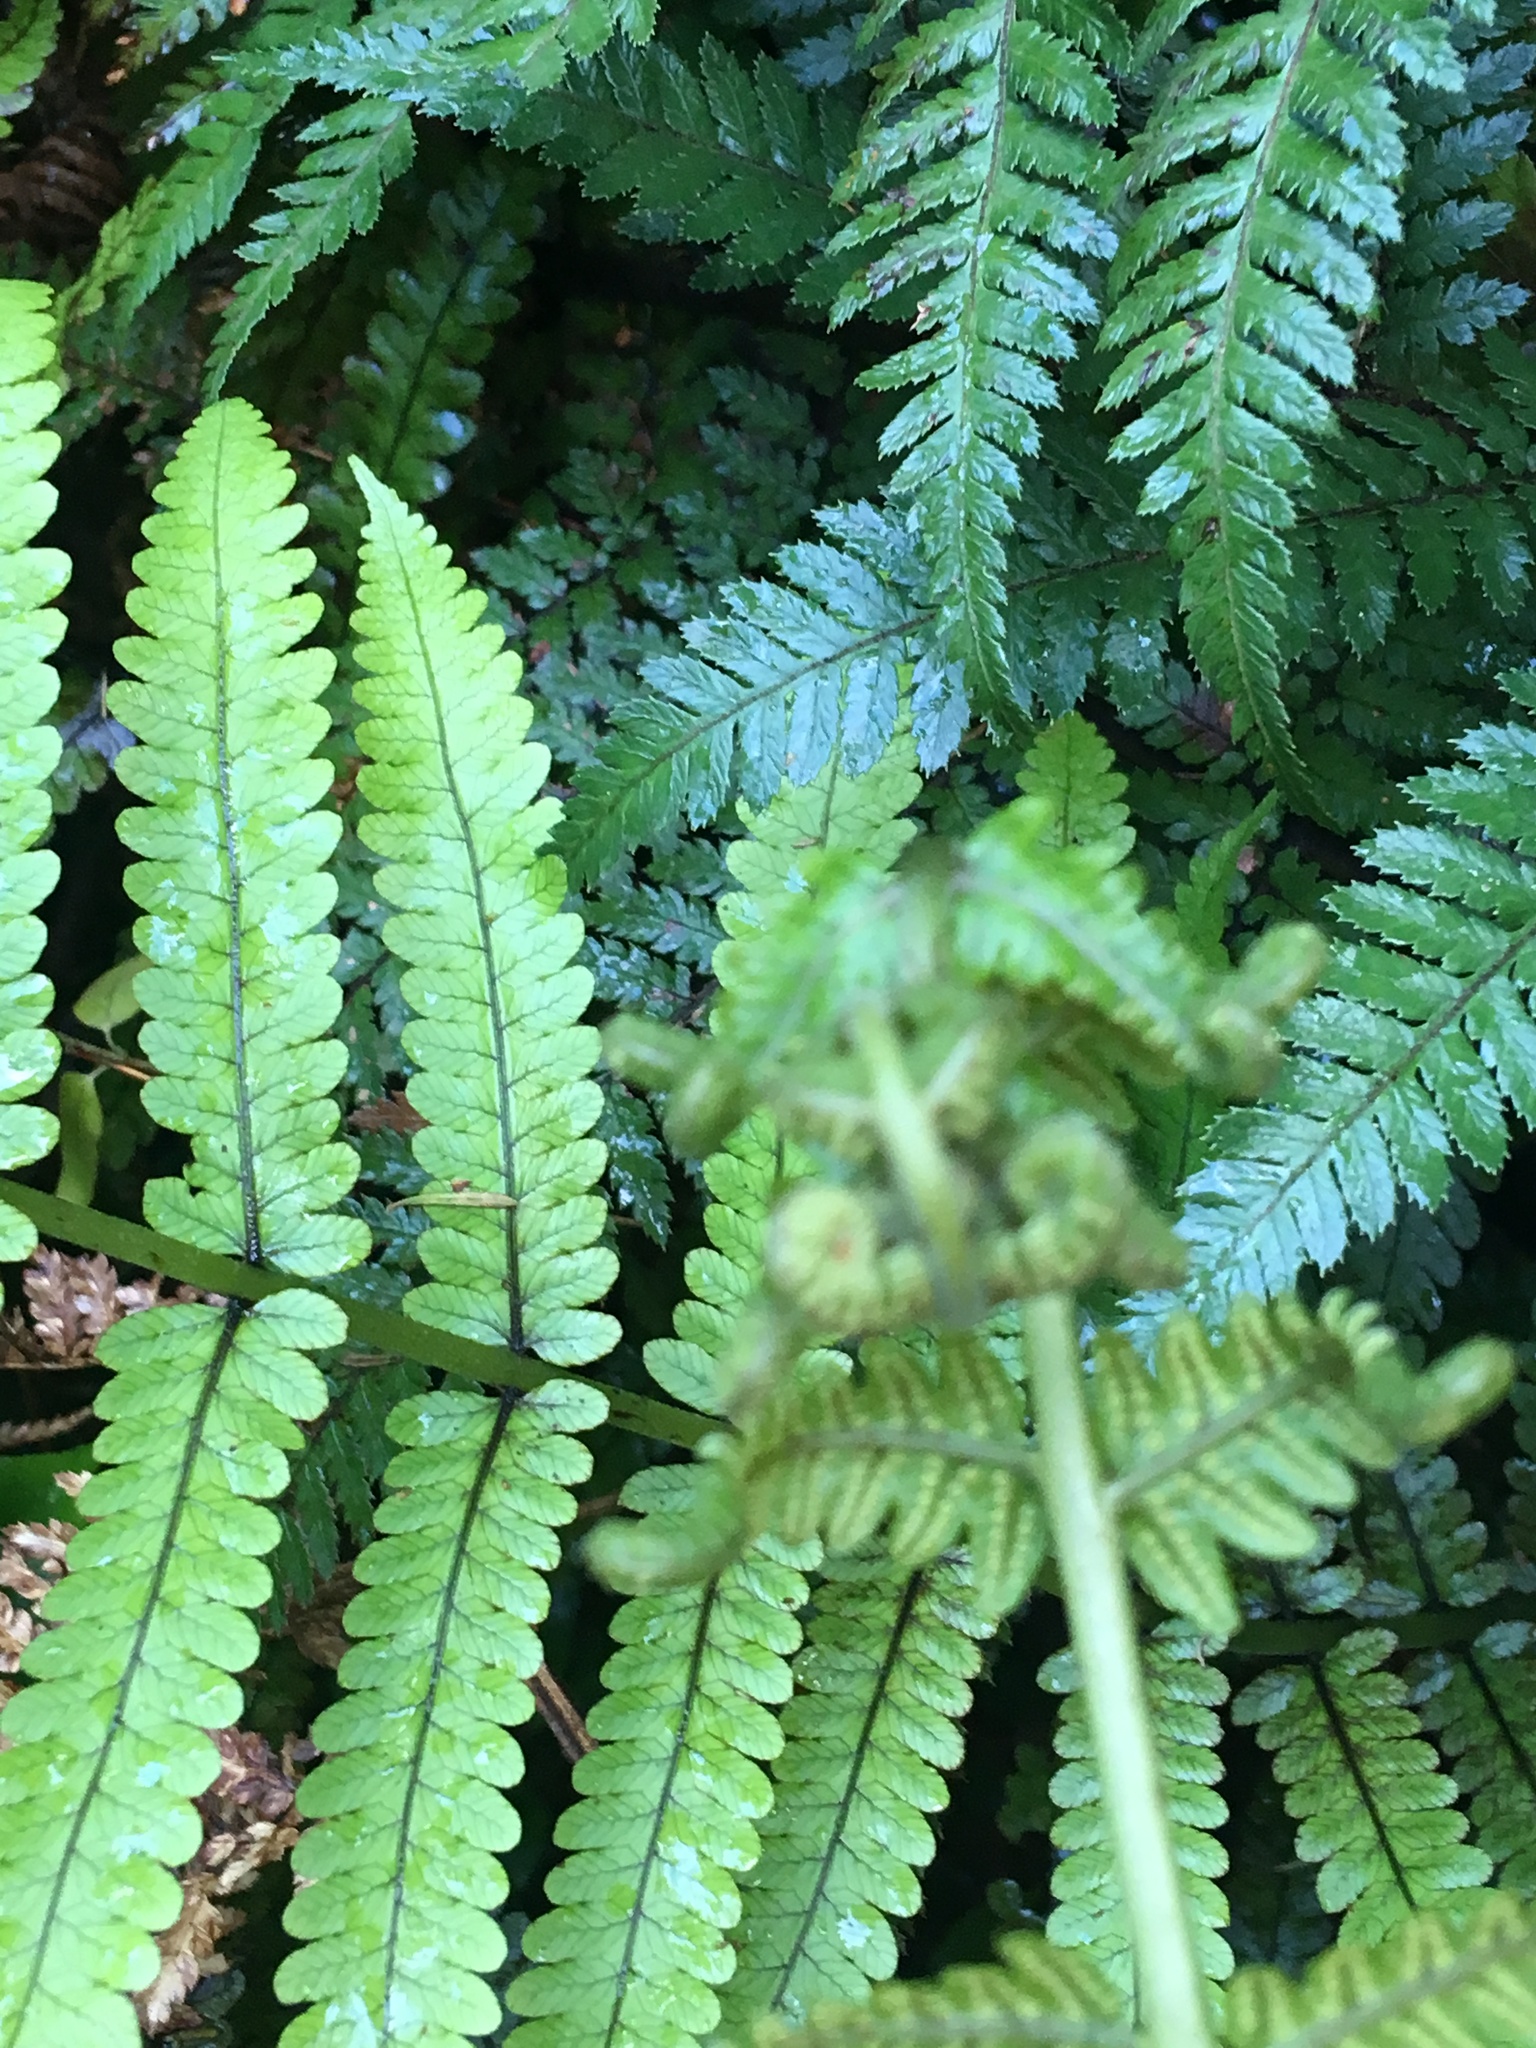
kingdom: Plantae
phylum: Tracheophyta
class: Polypodiopsida
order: Polypodiales
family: Thelypteridaceae
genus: Pakau
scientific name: Pakau pennigera
